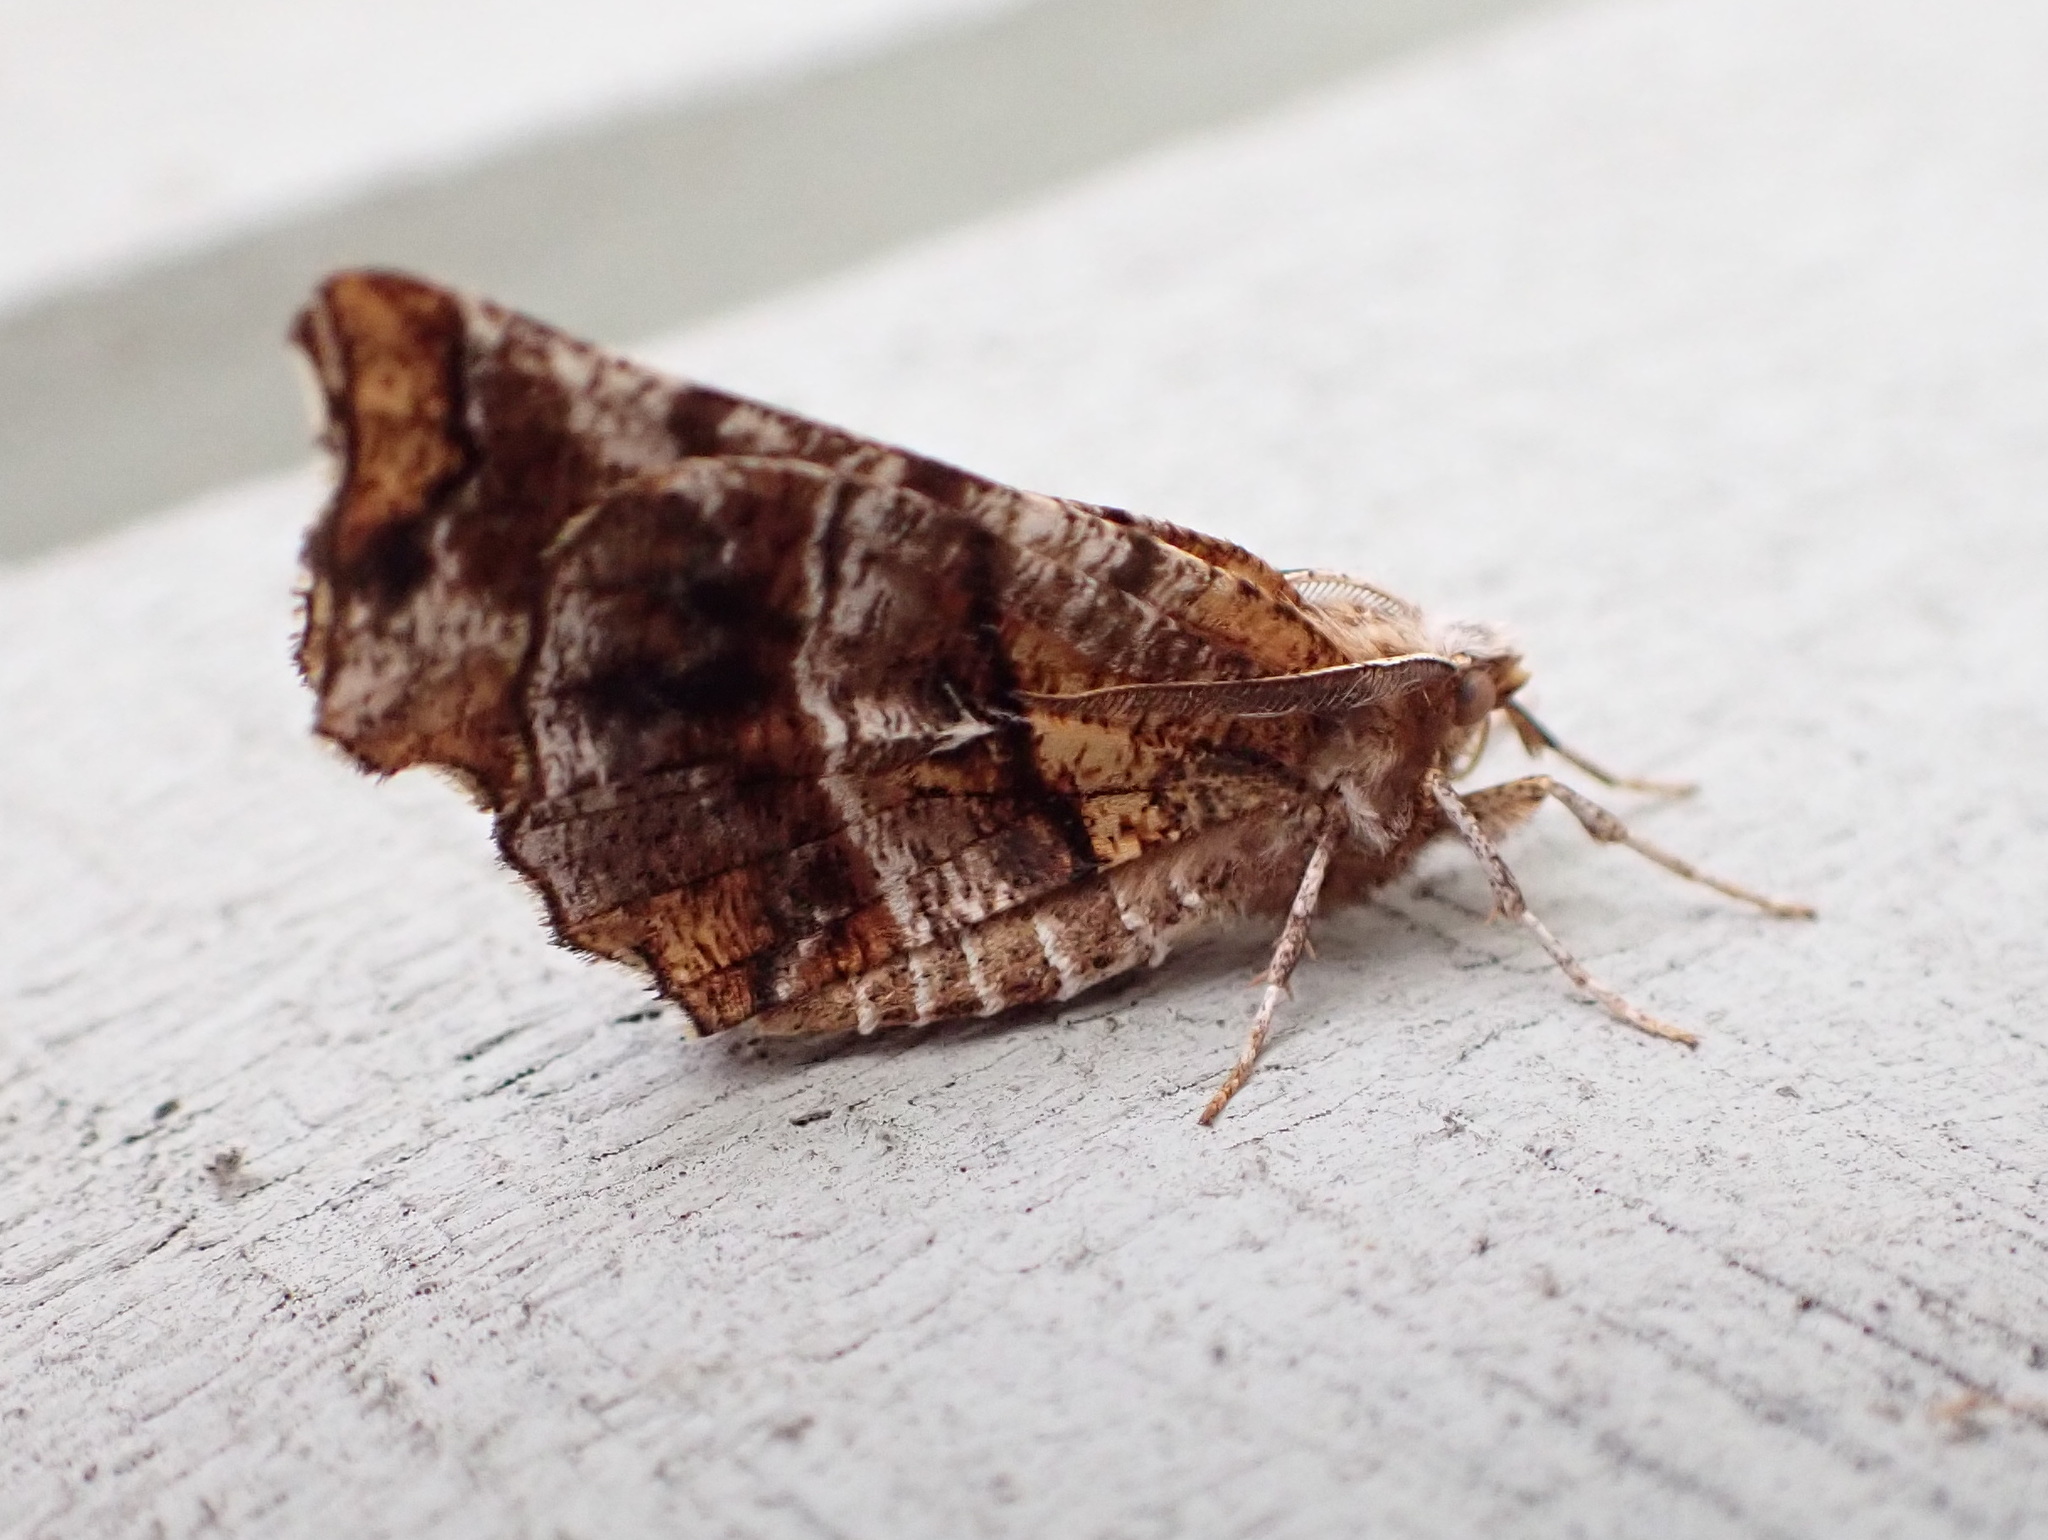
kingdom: Animalia
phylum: Arthropoda
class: Insecta
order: Lepidoptera
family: Geometridae
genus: Selenia
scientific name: Selenia alciphearia
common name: Brown-tipped thorn
